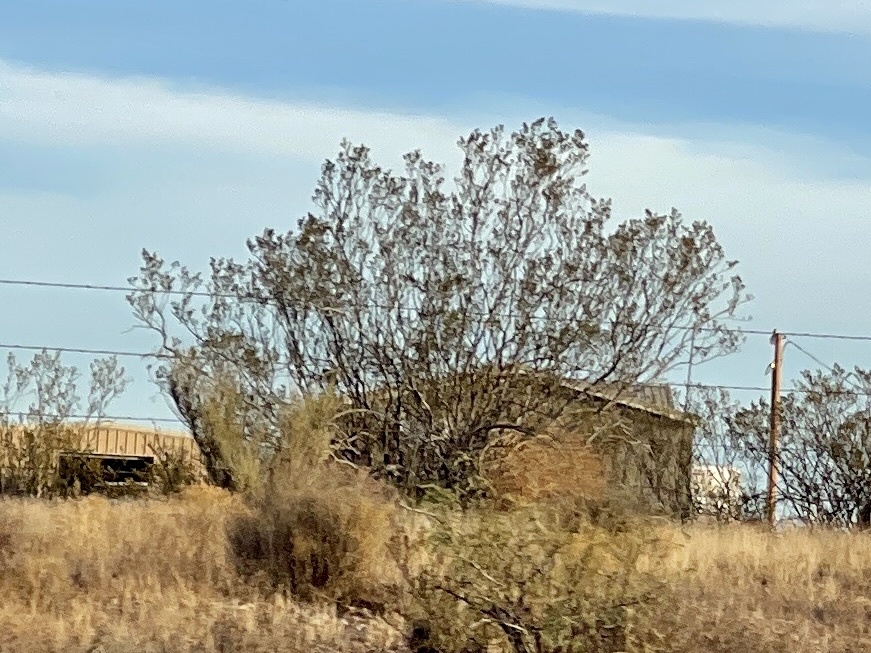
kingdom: Plantae
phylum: Tracheophyta
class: Magnoliopsida
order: Zygophyllales
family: Zygophyllaceae
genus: Larrea
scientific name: Larrea tridentata
